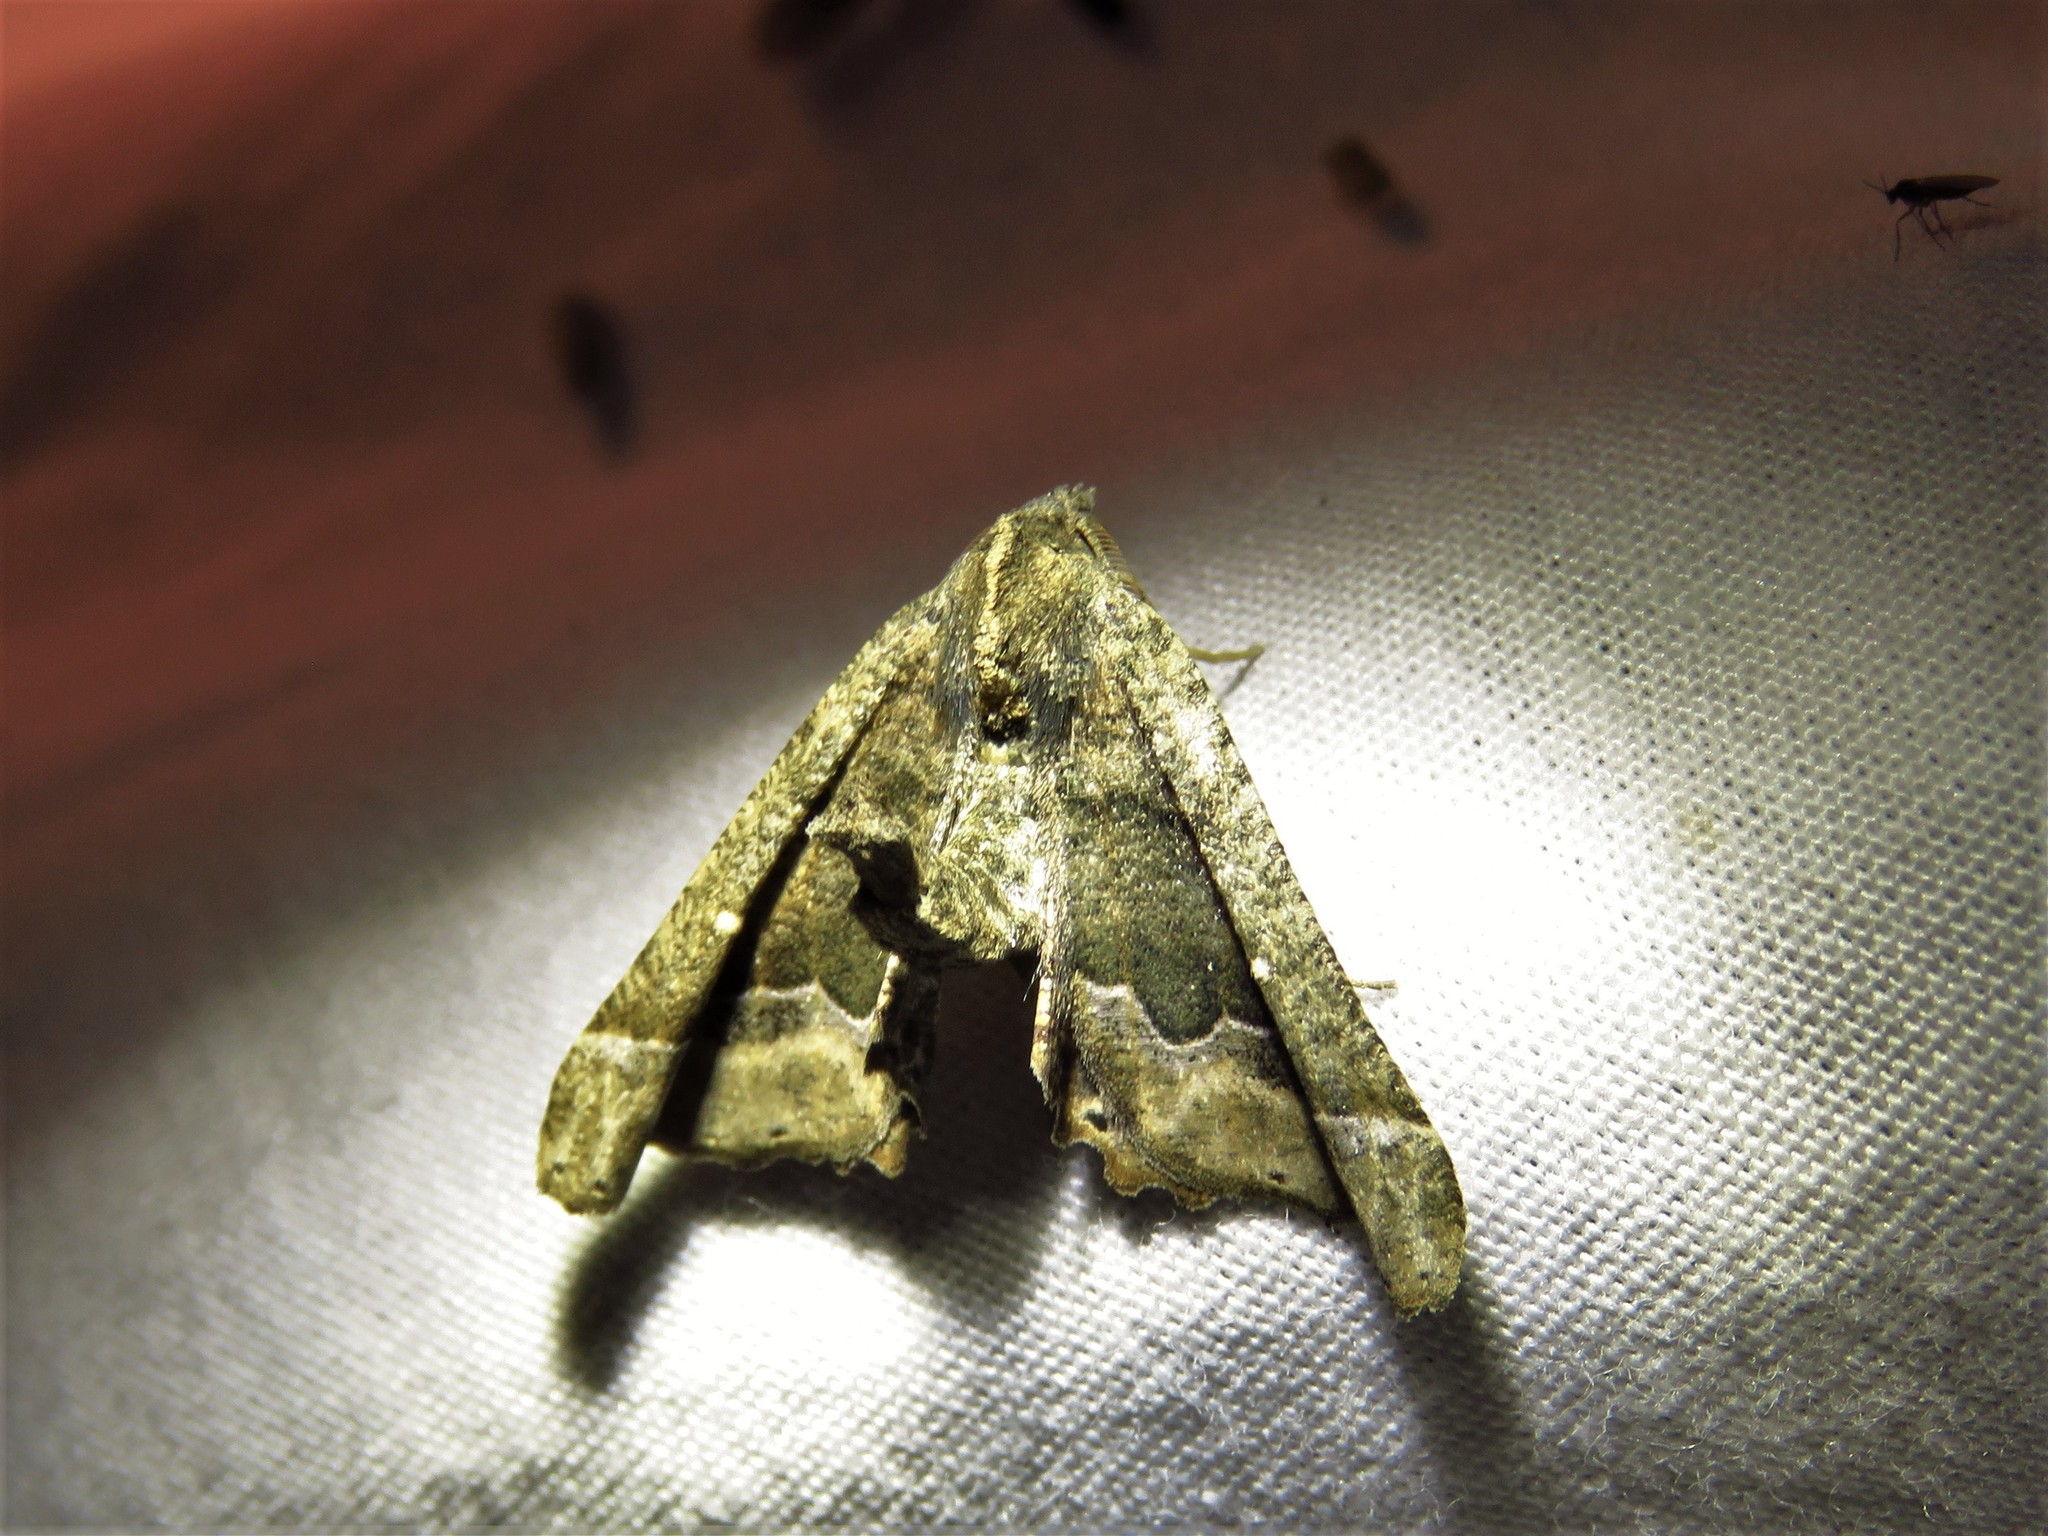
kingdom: Animalia
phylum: Arthropoda
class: Insecta
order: Lepidoptera
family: Geometridae
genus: Pero
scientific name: Pero meskaria
